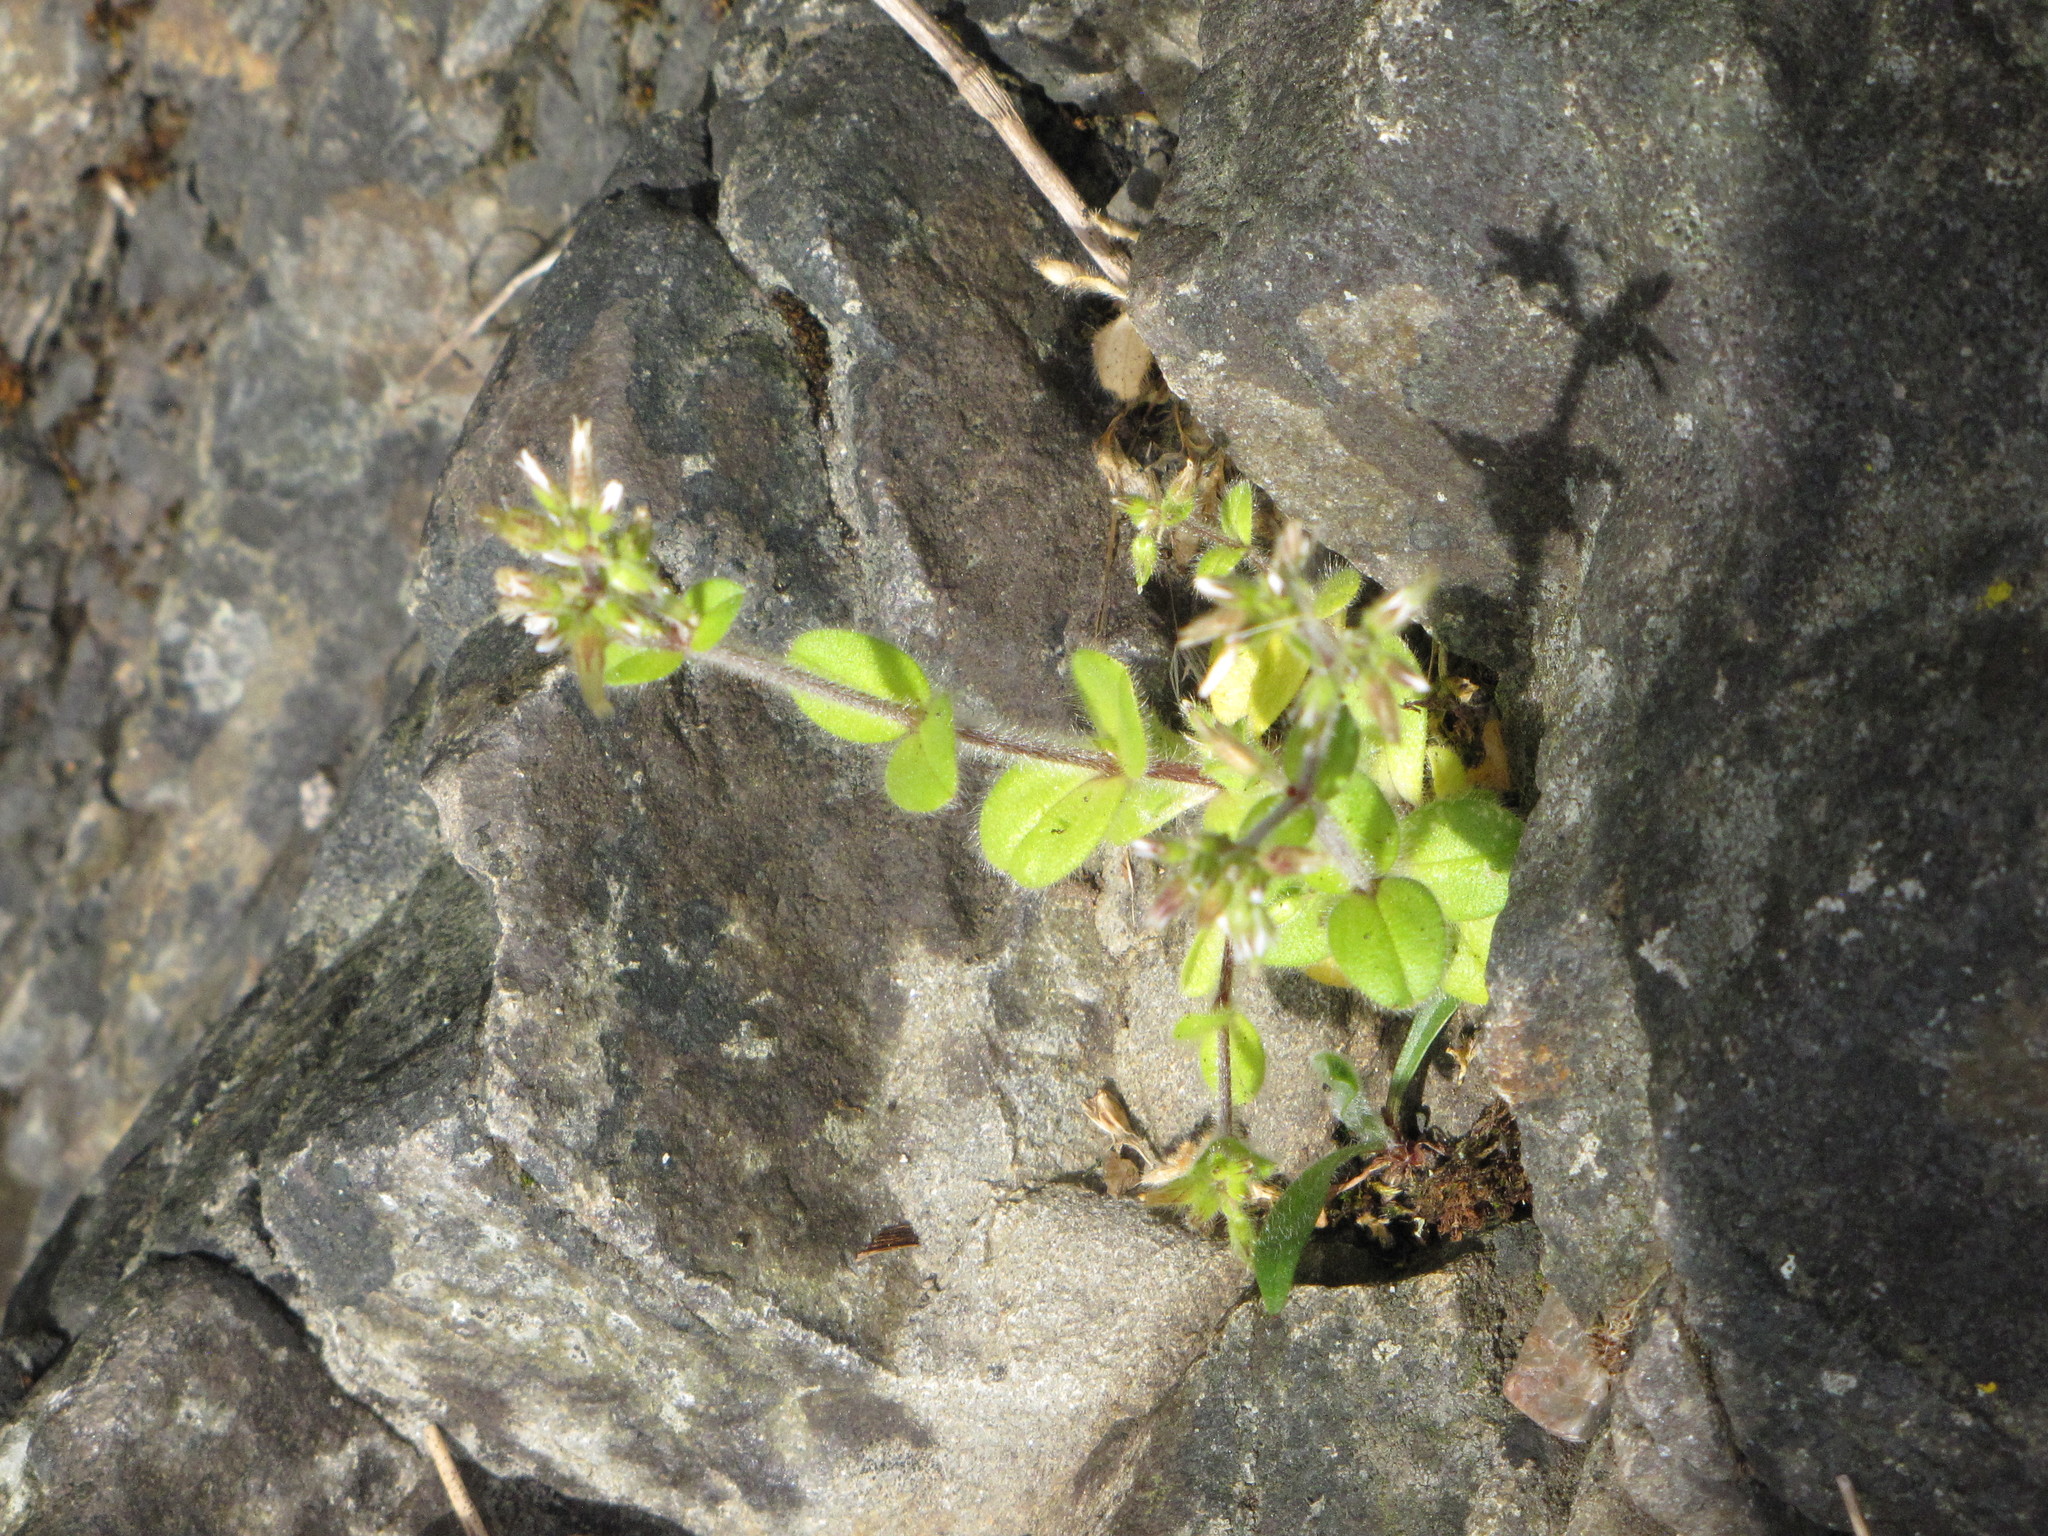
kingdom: Plantae
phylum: Tracheophyta
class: Magnoliopsida
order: Caryophyllales
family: Caryophyllaceae
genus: Cerastium
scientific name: Cerastium glomeratum
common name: Sticky chickweed
